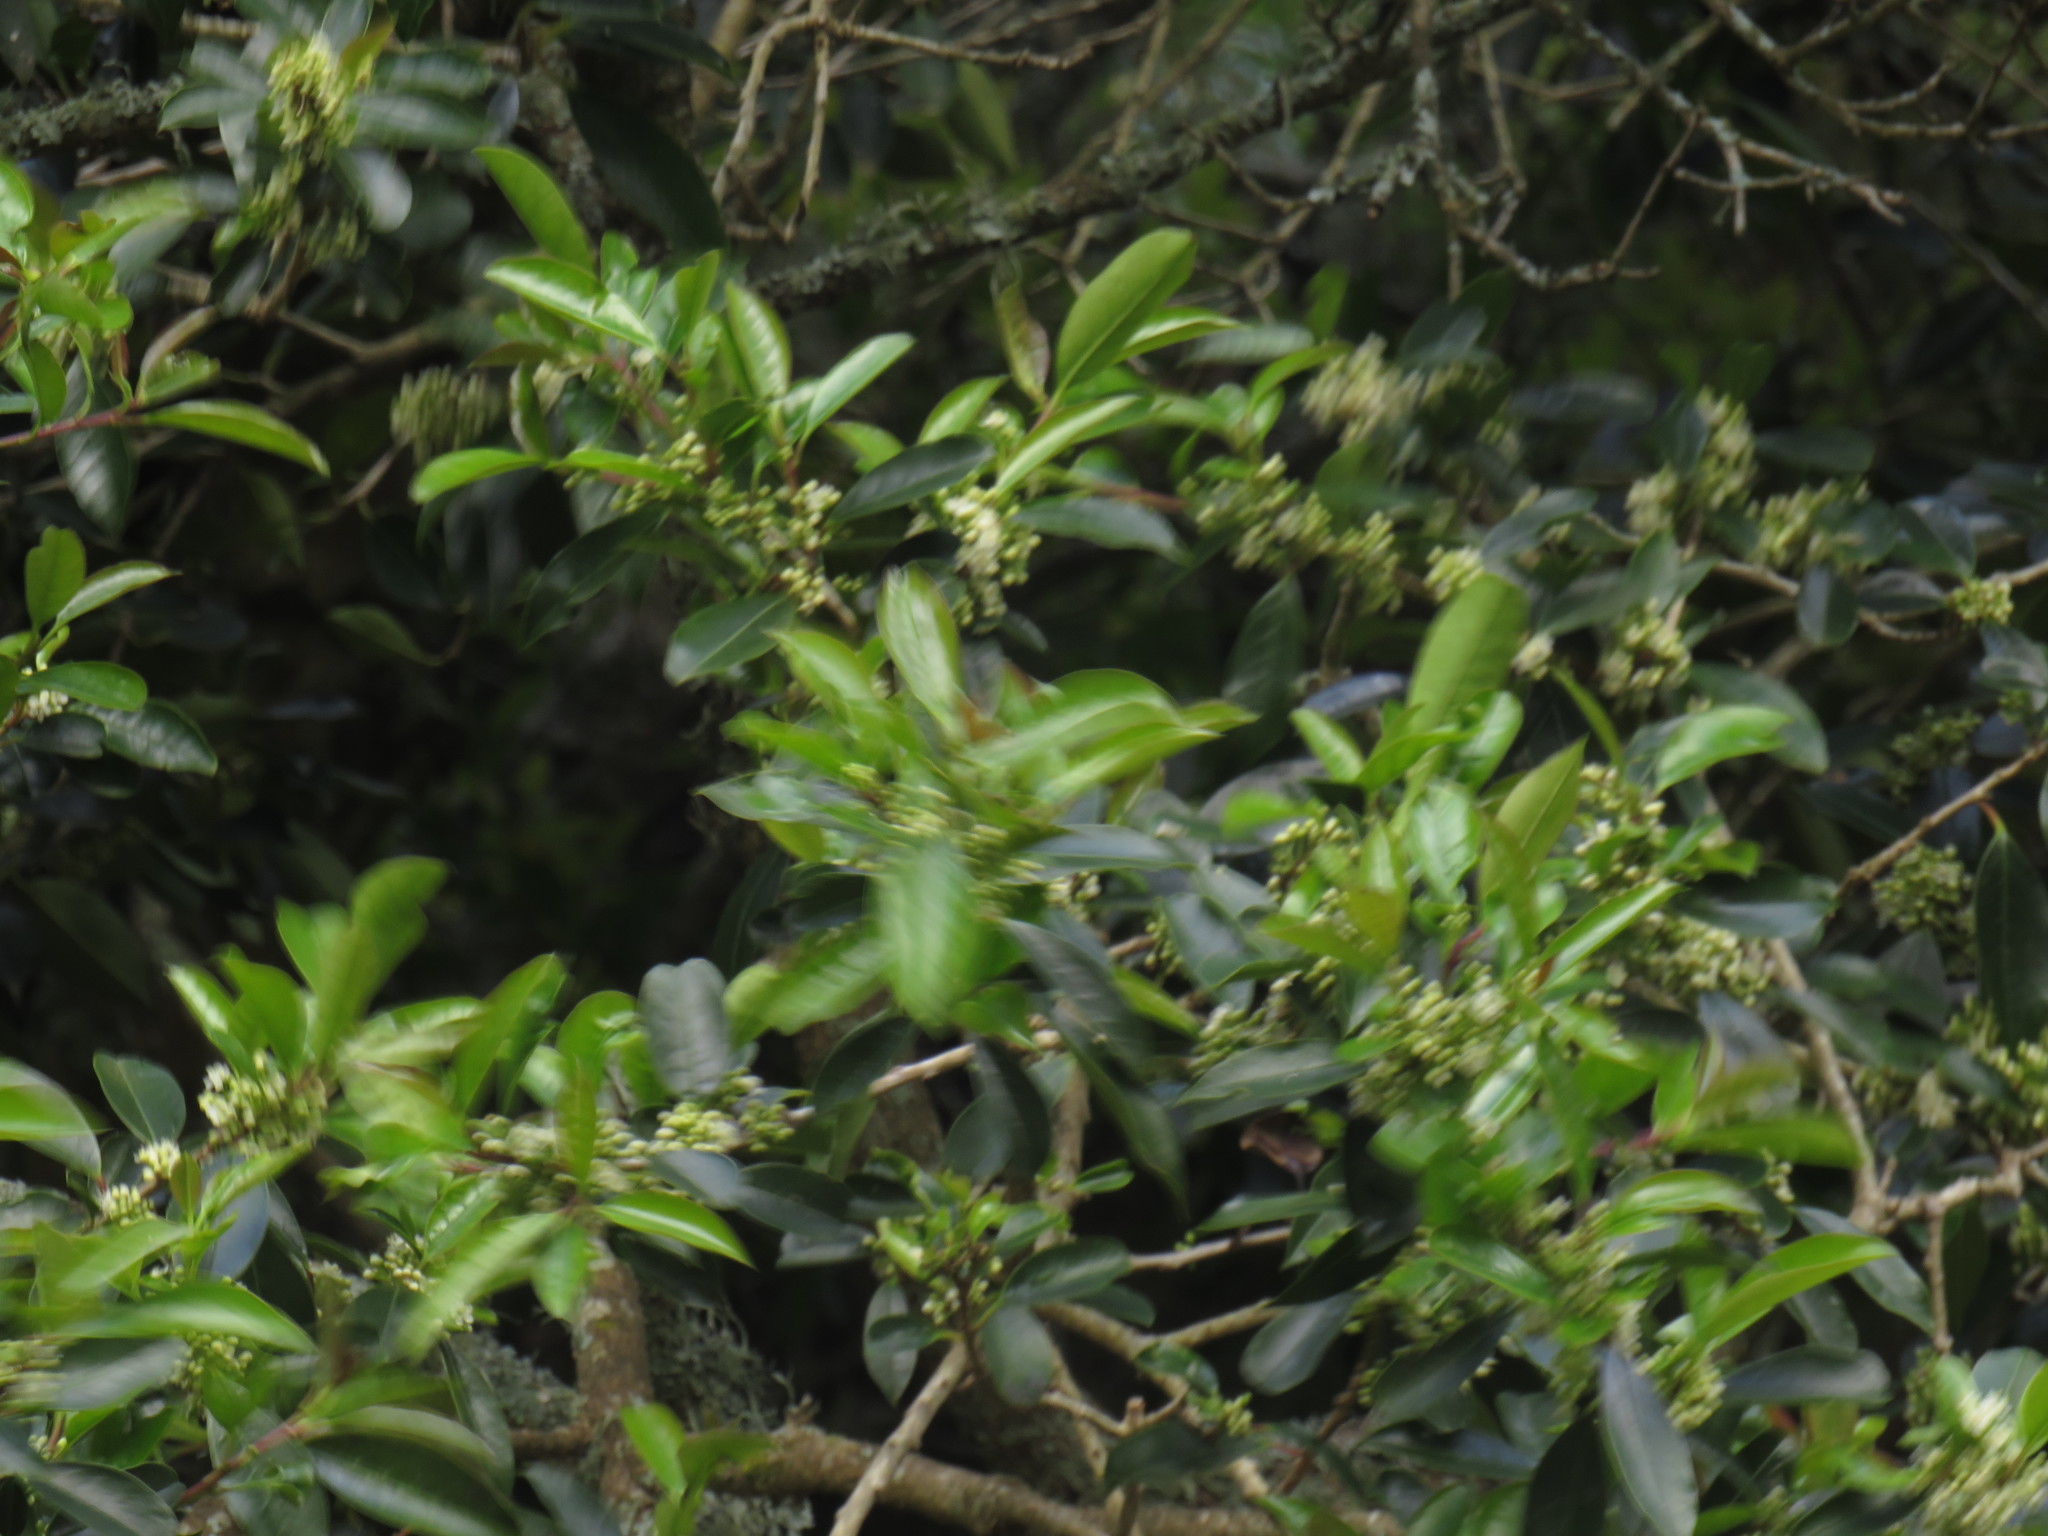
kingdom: Plantae
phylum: Tracheophyta
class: Magnoliopsida
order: Aquifoliales
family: Aquifoliaceae
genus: Ilex
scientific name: Ilex mitis
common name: African holly
